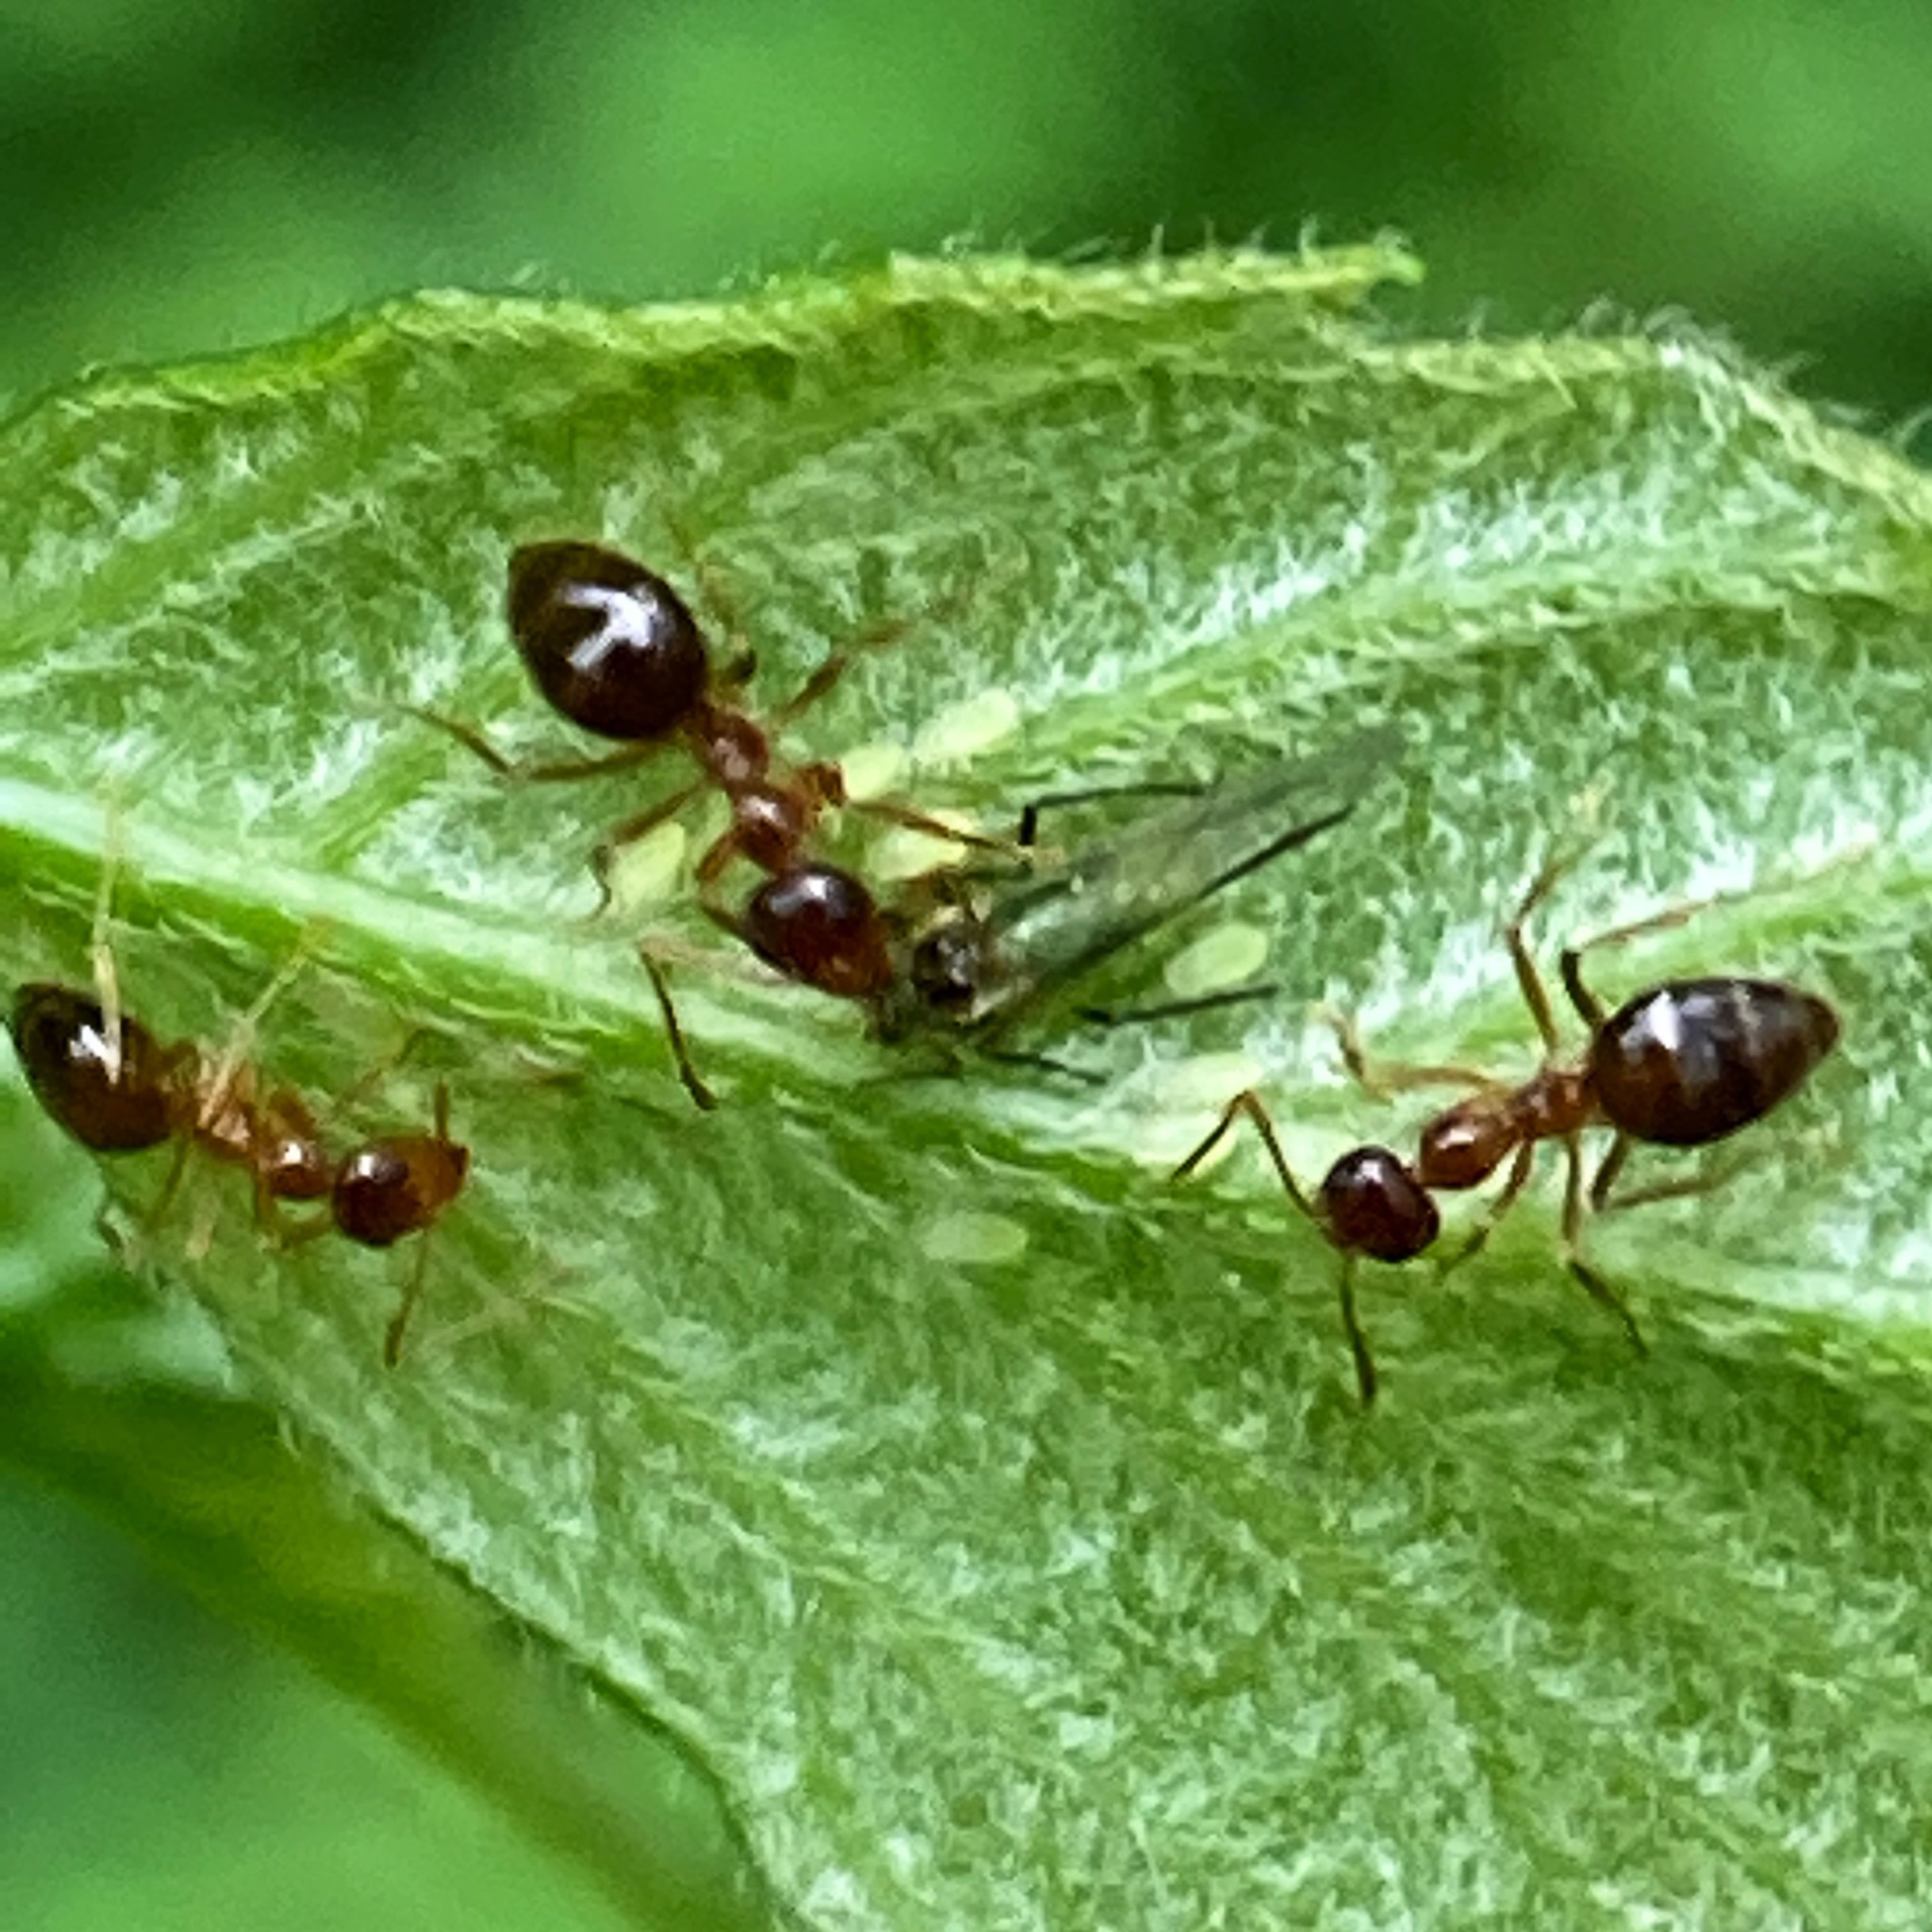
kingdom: Animalia
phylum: Arthropoda
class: Insecta
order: Hymenoptera
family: Formicidae
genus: Prenolepis
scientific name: Prenolepis imparis
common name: Small honey ant
